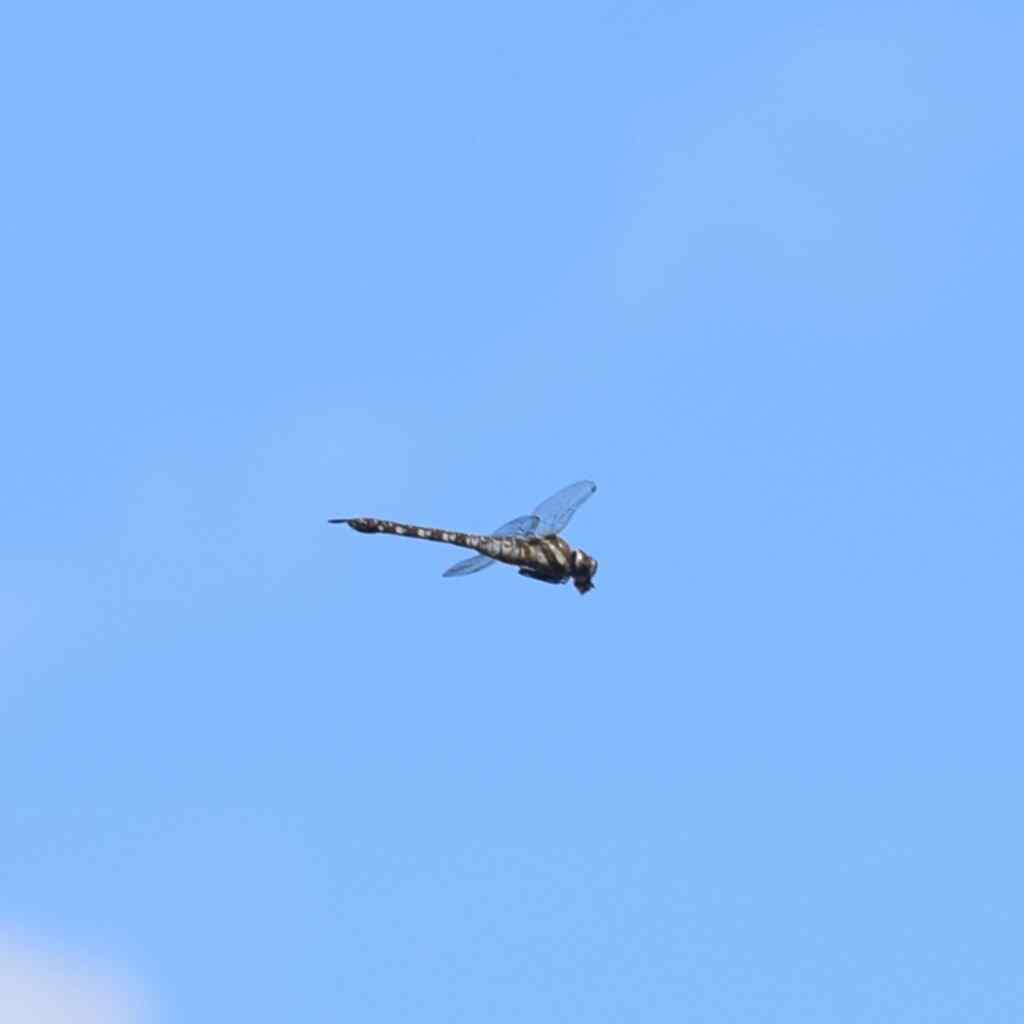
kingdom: Animalia
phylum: Arthropoda
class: Insecta
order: Odonata
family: Aeshnidae
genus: Aeshna
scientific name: Aeshna mixta
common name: Migrant hawker
